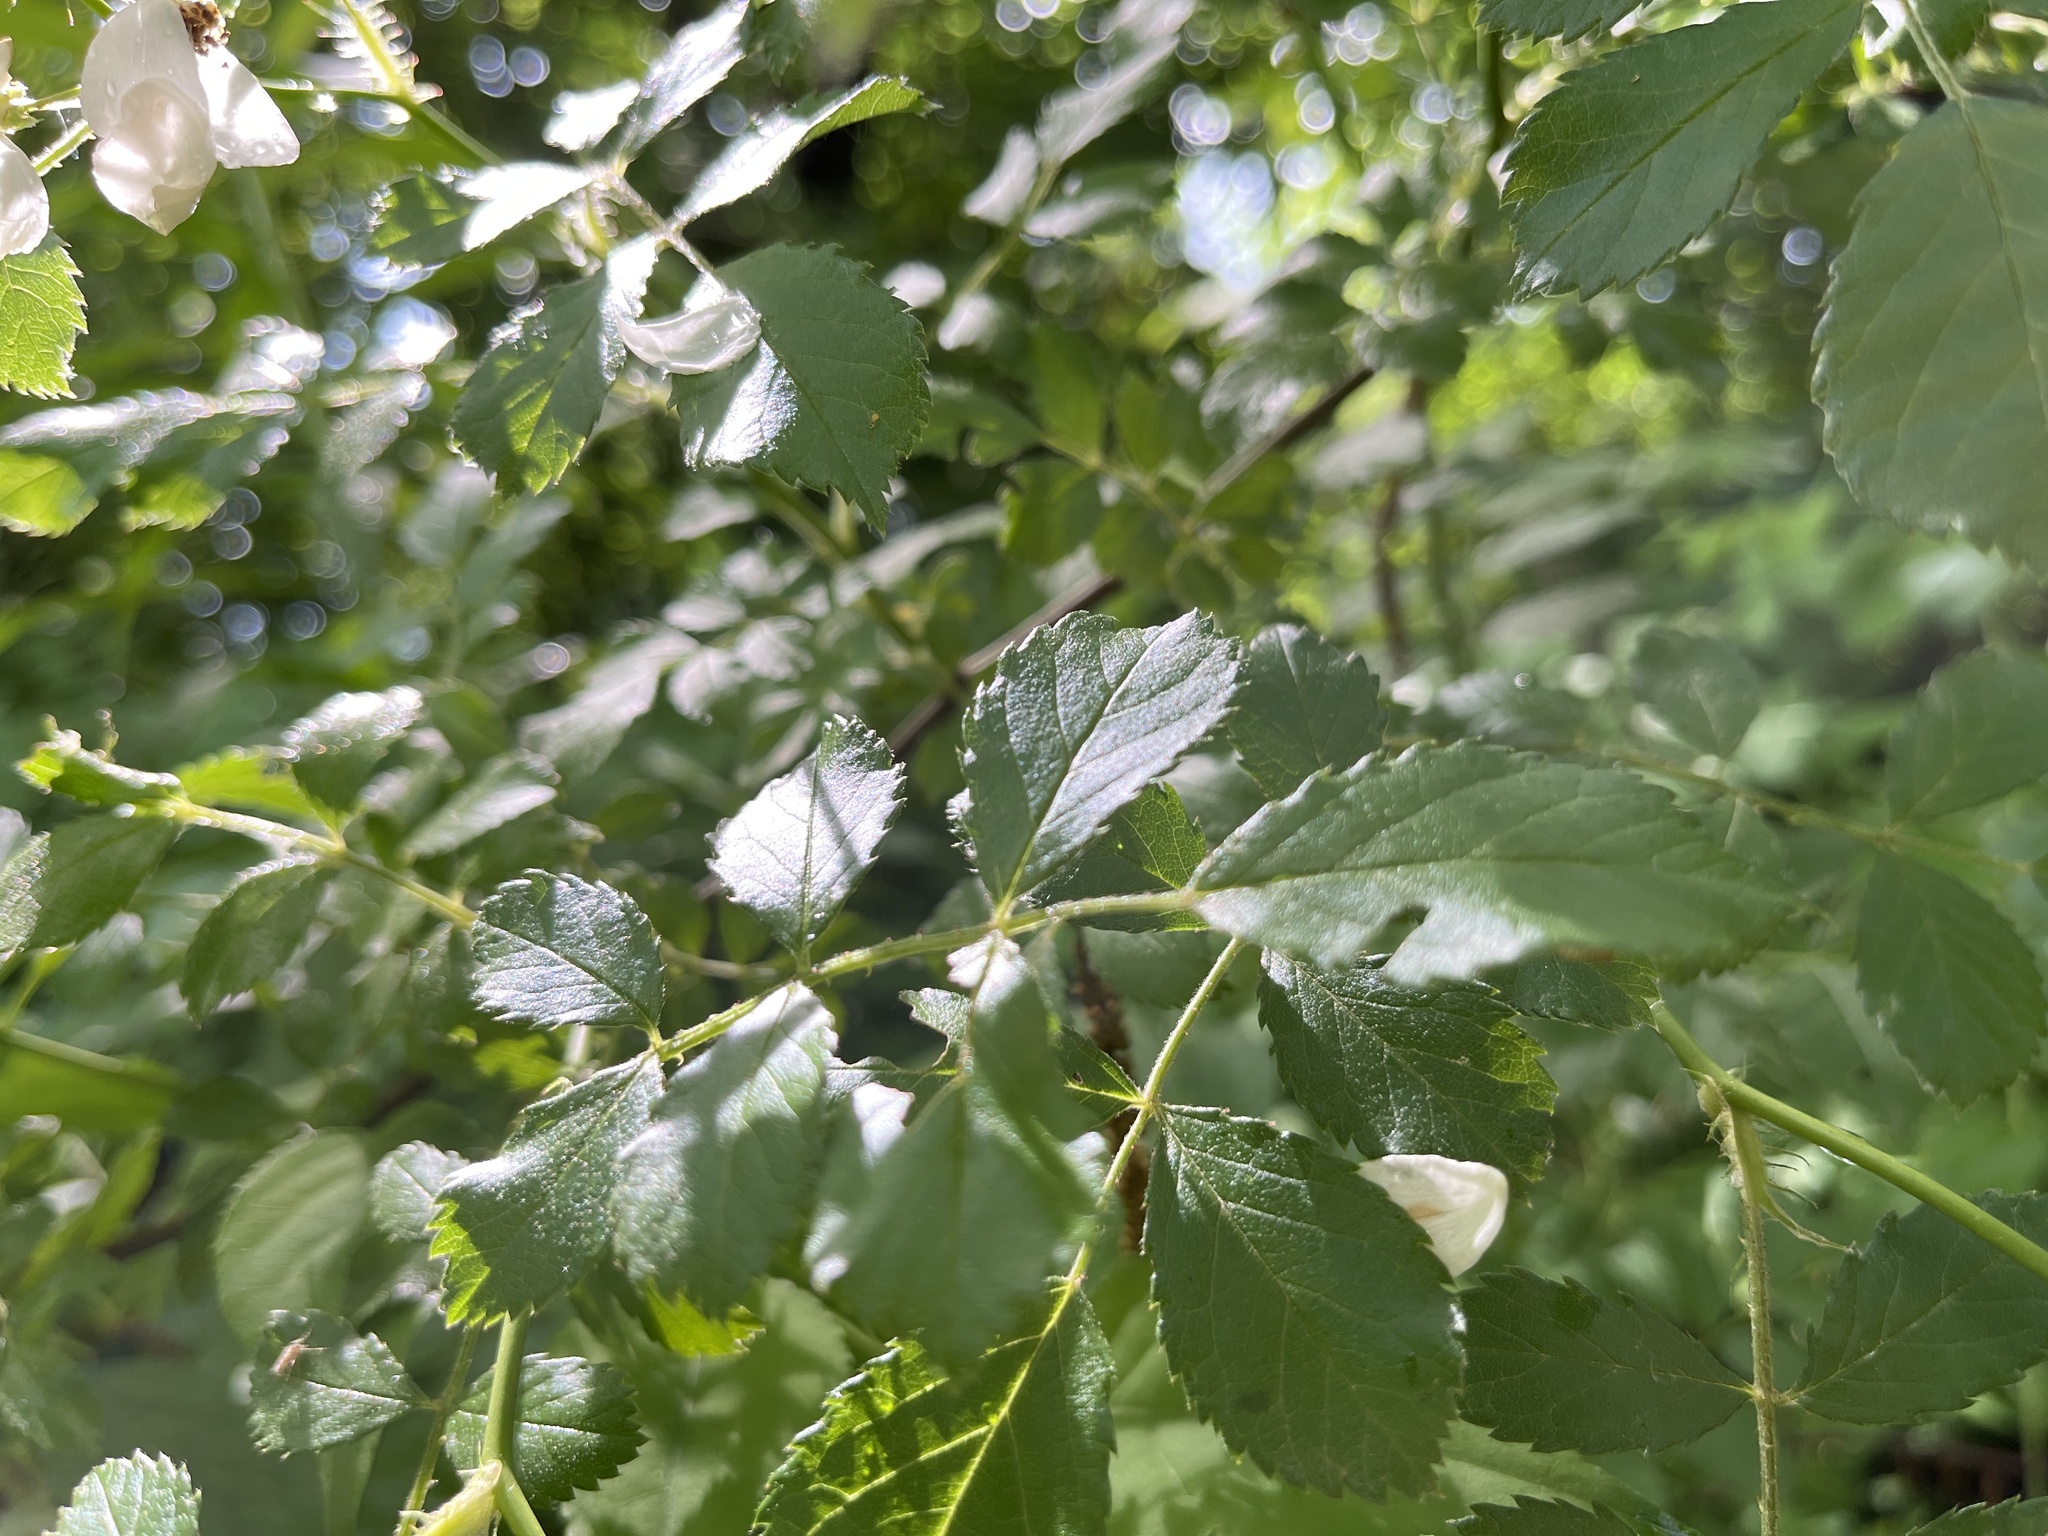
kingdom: Plantae
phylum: Tracheophyta
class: Magnoliopsida
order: Rosales
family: Rosaceae
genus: Rosa
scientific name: Rosa multiflora
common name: Multiflora rose
